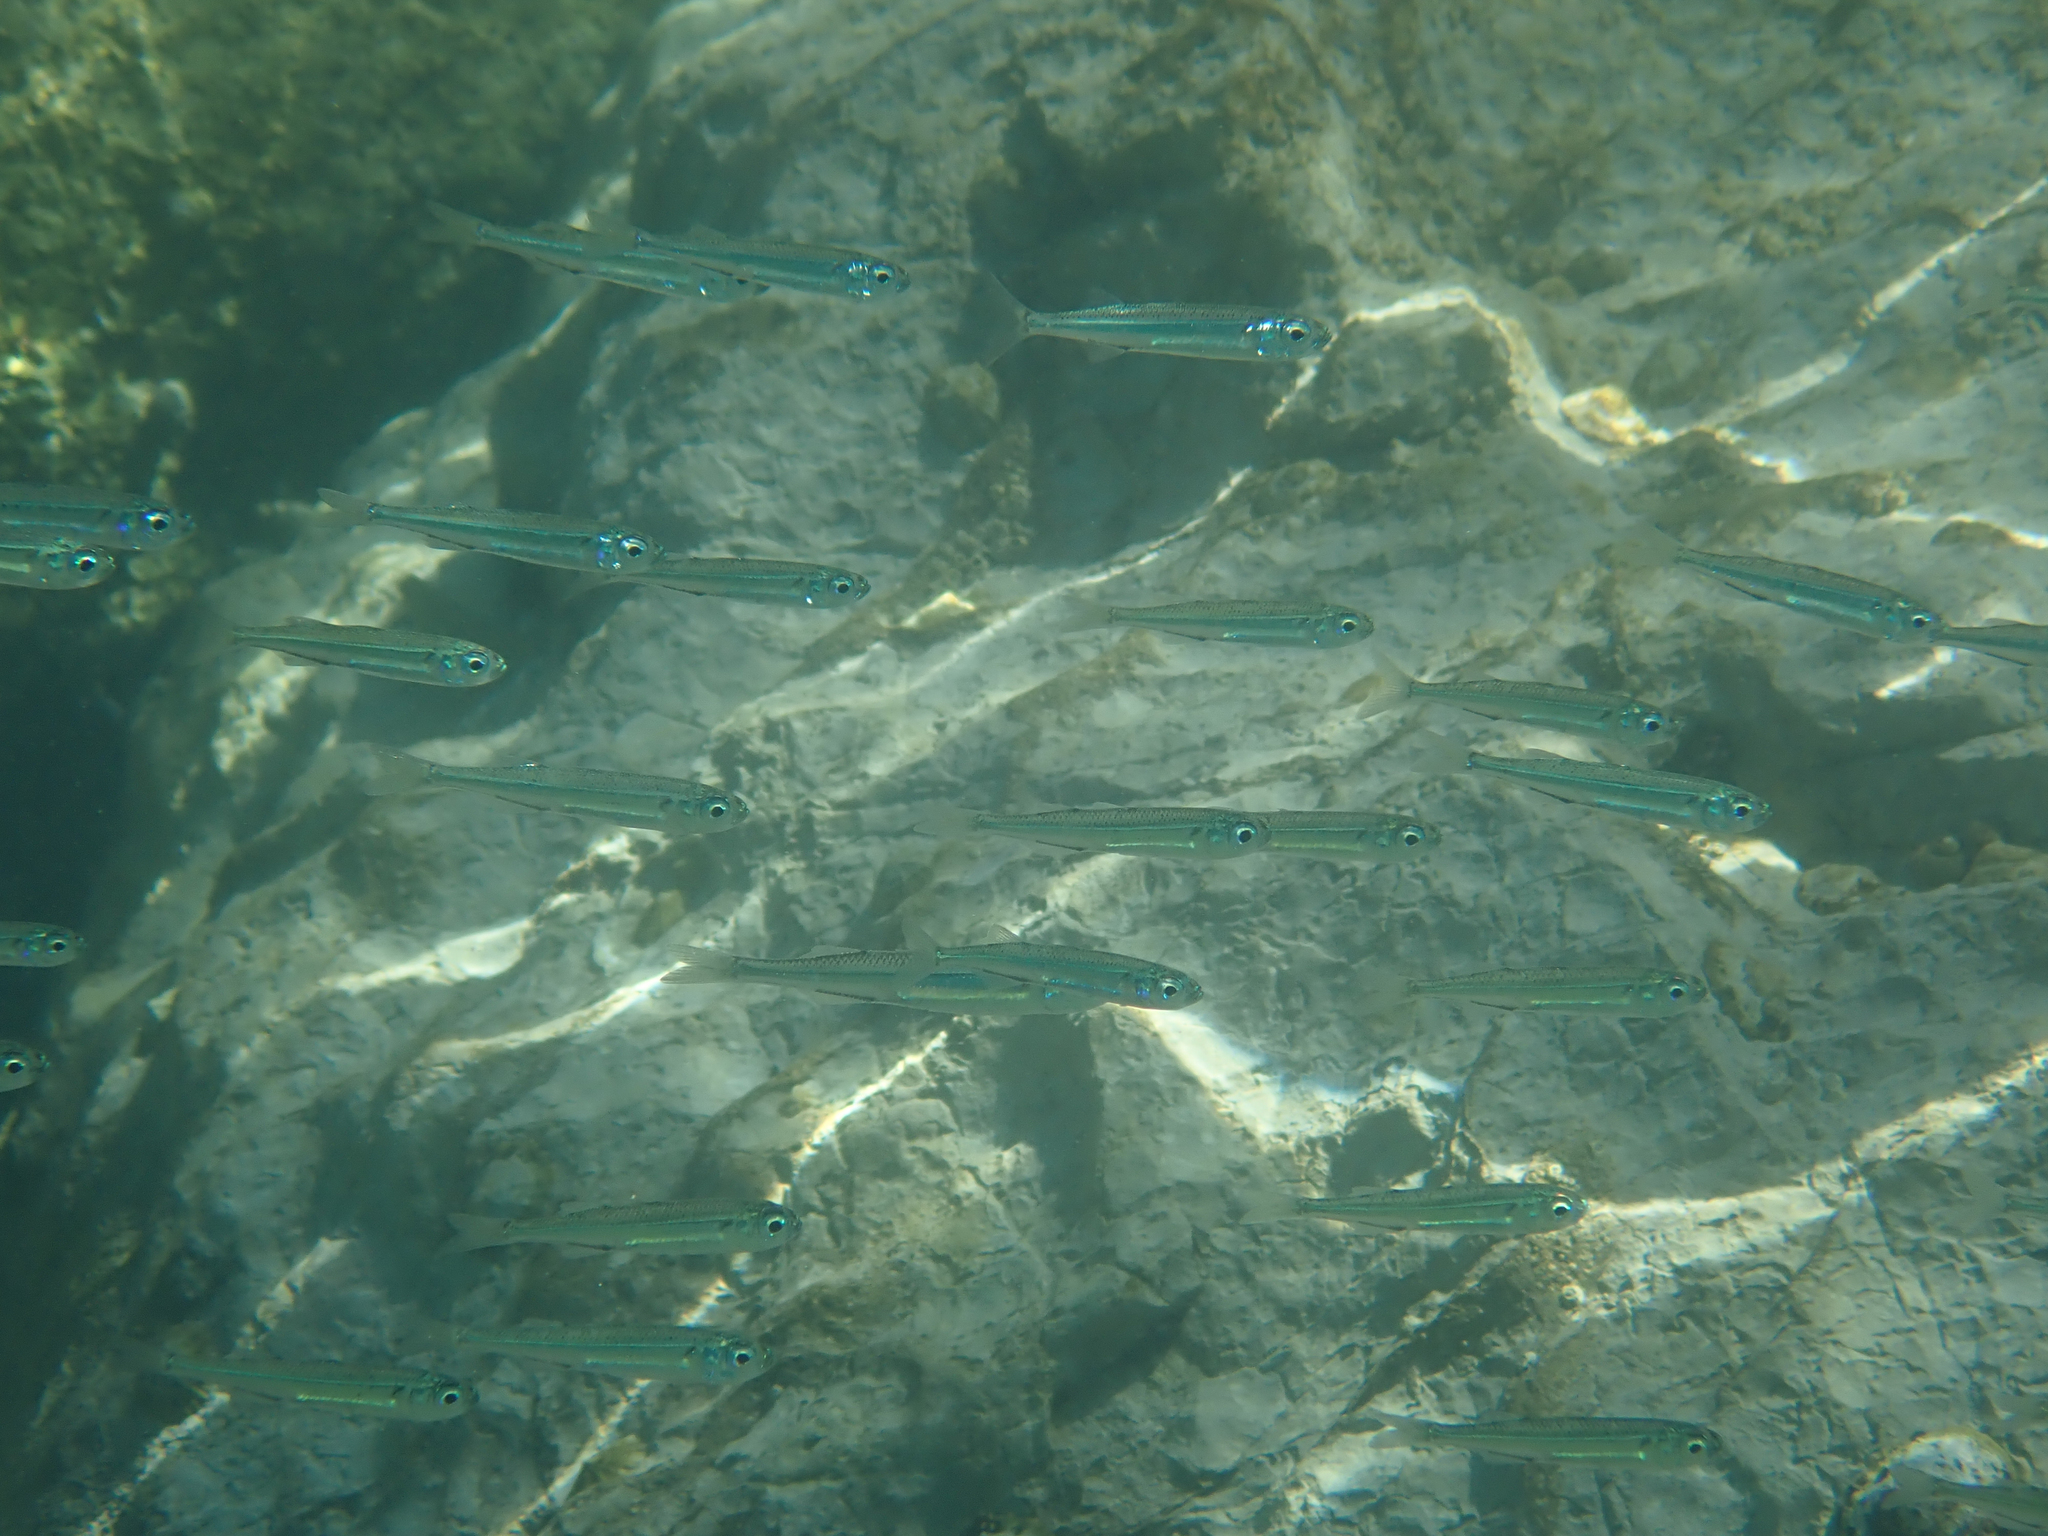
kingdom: Animalia
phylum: Chordata
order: Atheriniformes
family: Atherinidae
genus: Atherina
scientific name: Atherina boyeri
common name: Big-scale sand smelt
